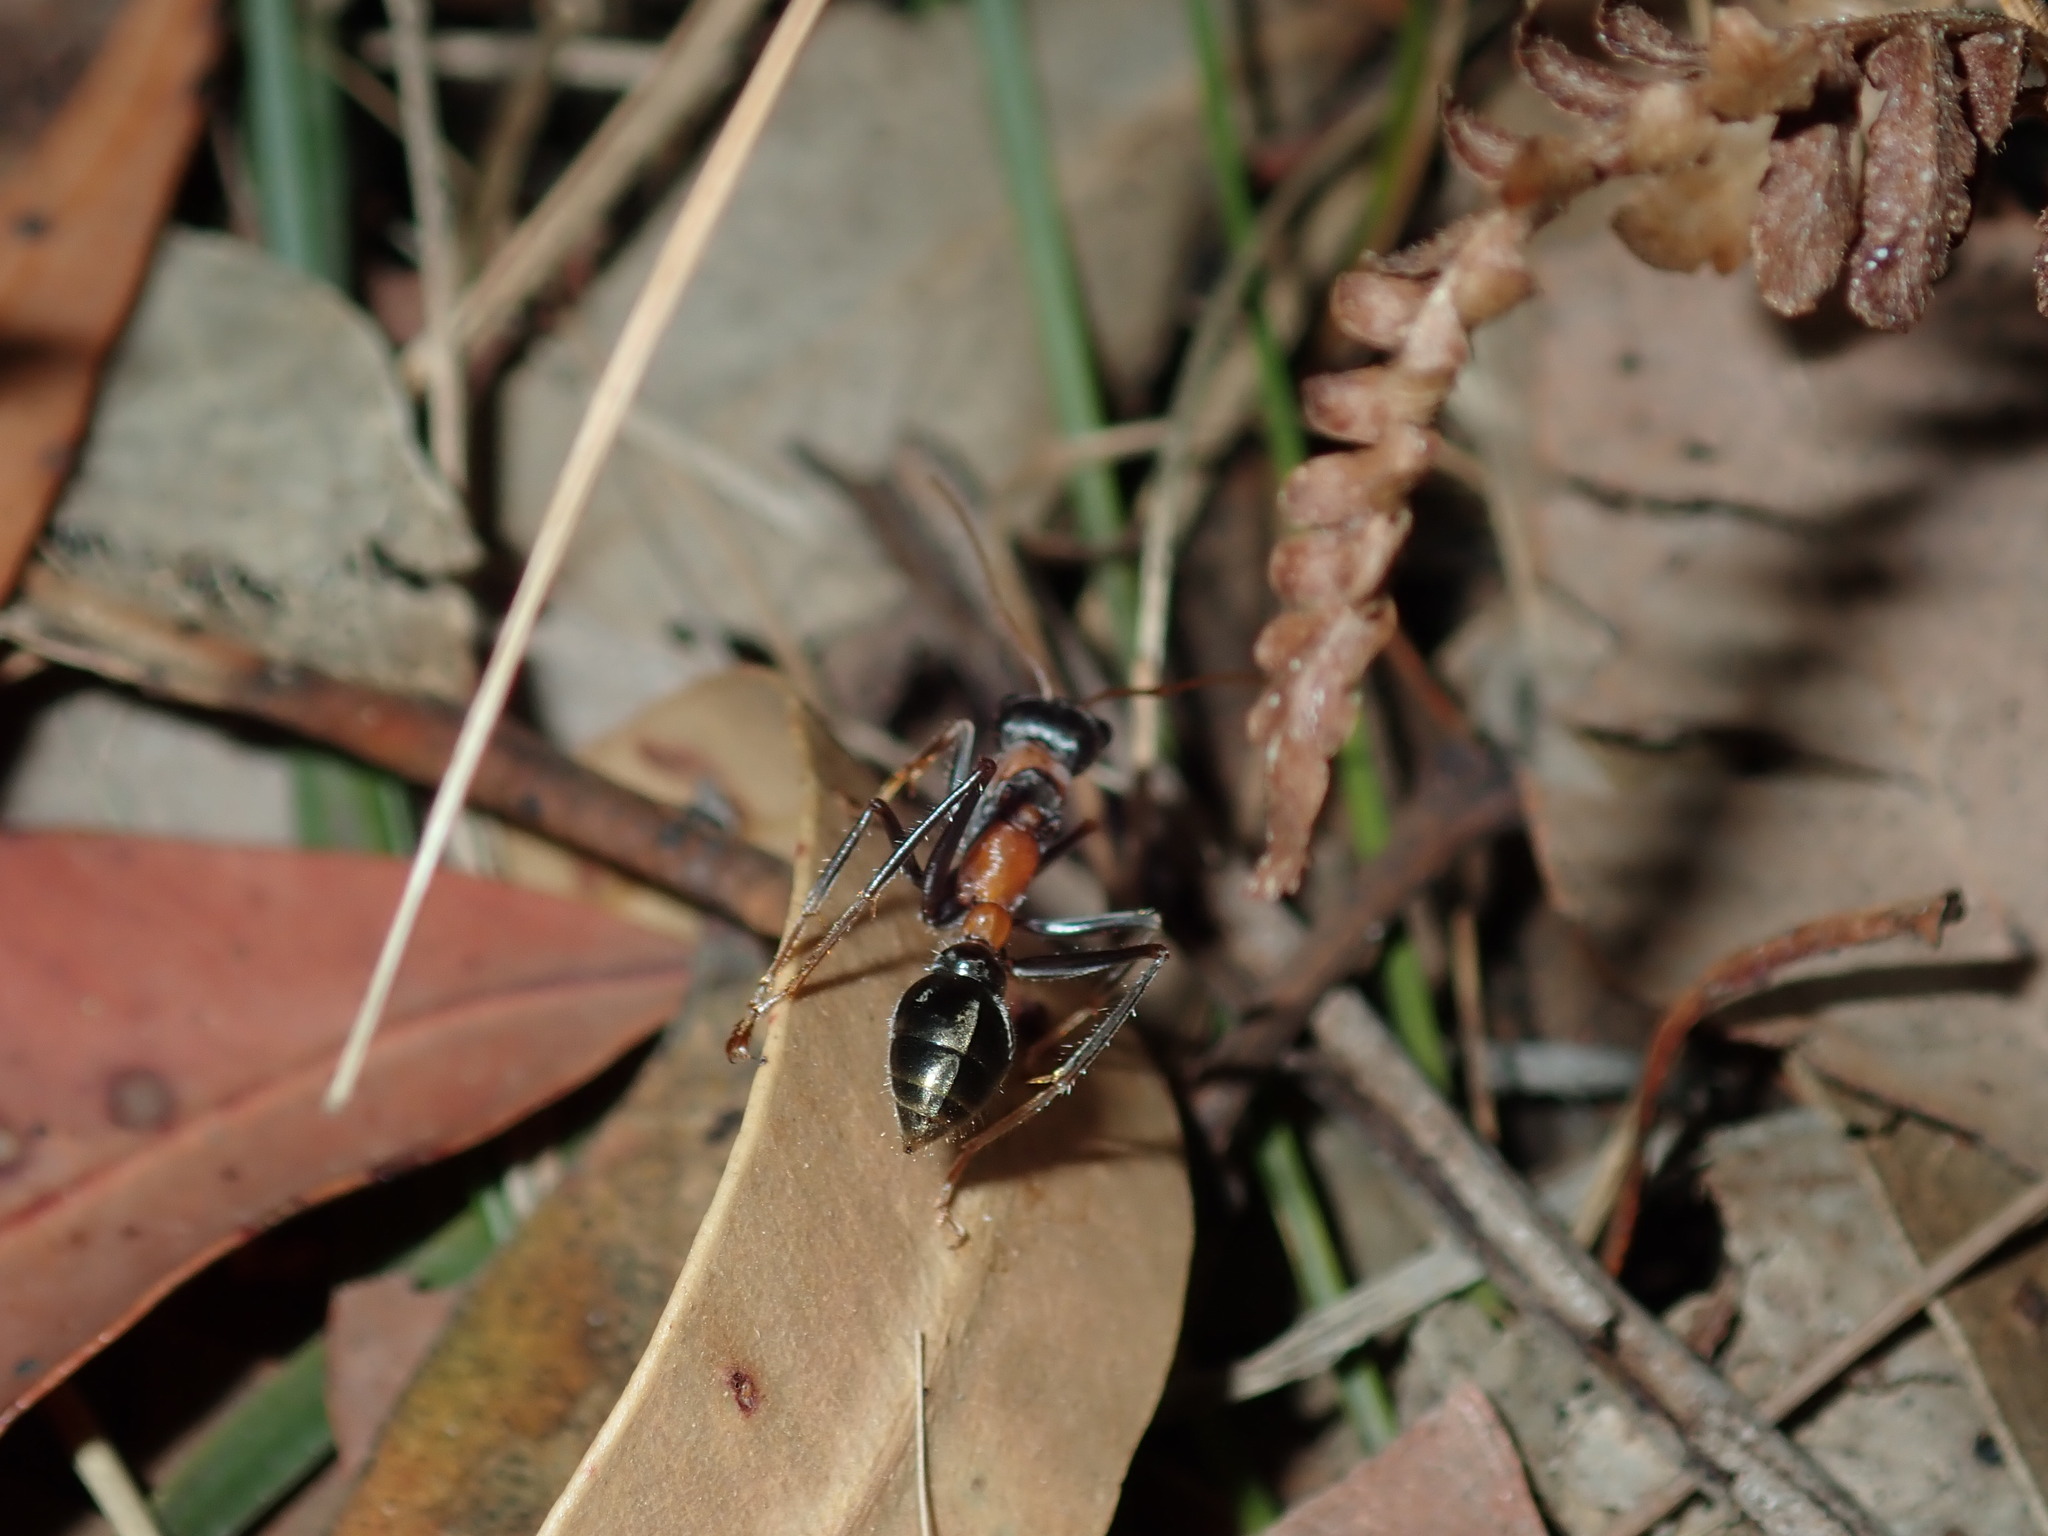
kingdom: Animalia
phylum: Arthropoda
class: Insecta
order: Hymenoptera
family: Formicidae
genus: Myrmecia
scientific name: Myrmecia nigrocincta
